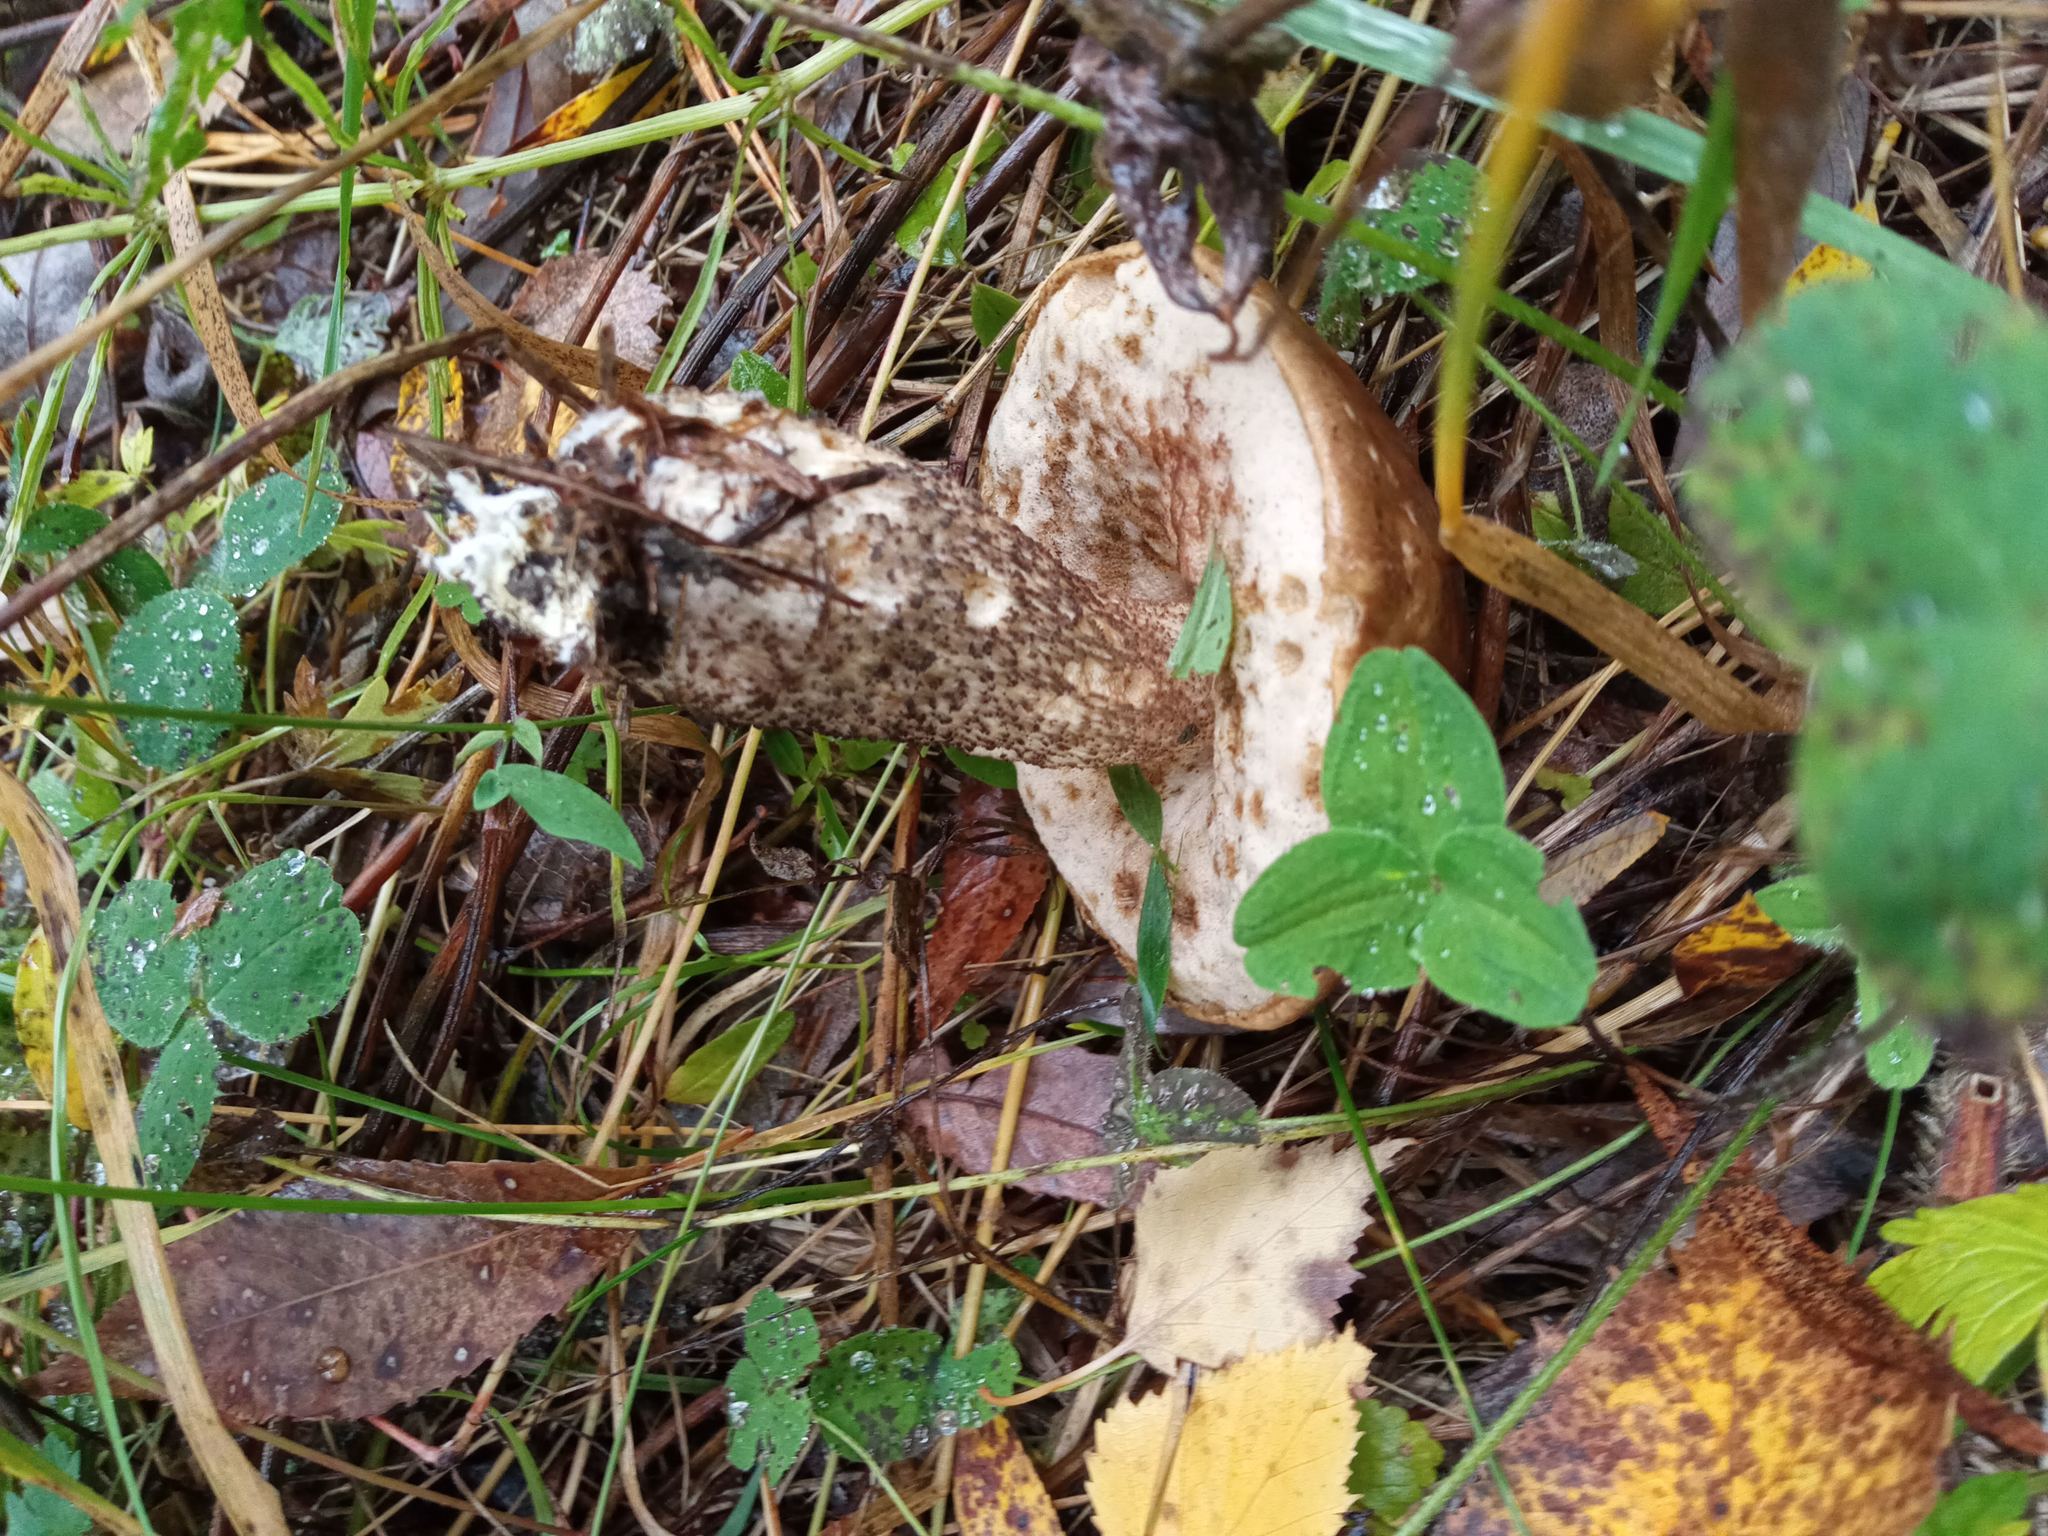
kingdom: Fungi
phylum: Basidiomycota
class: Agaricomycetes
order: Boletales
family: Boletaceae
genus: Leccinum
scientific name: Leccinum scabrum
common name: Blushing bolete
